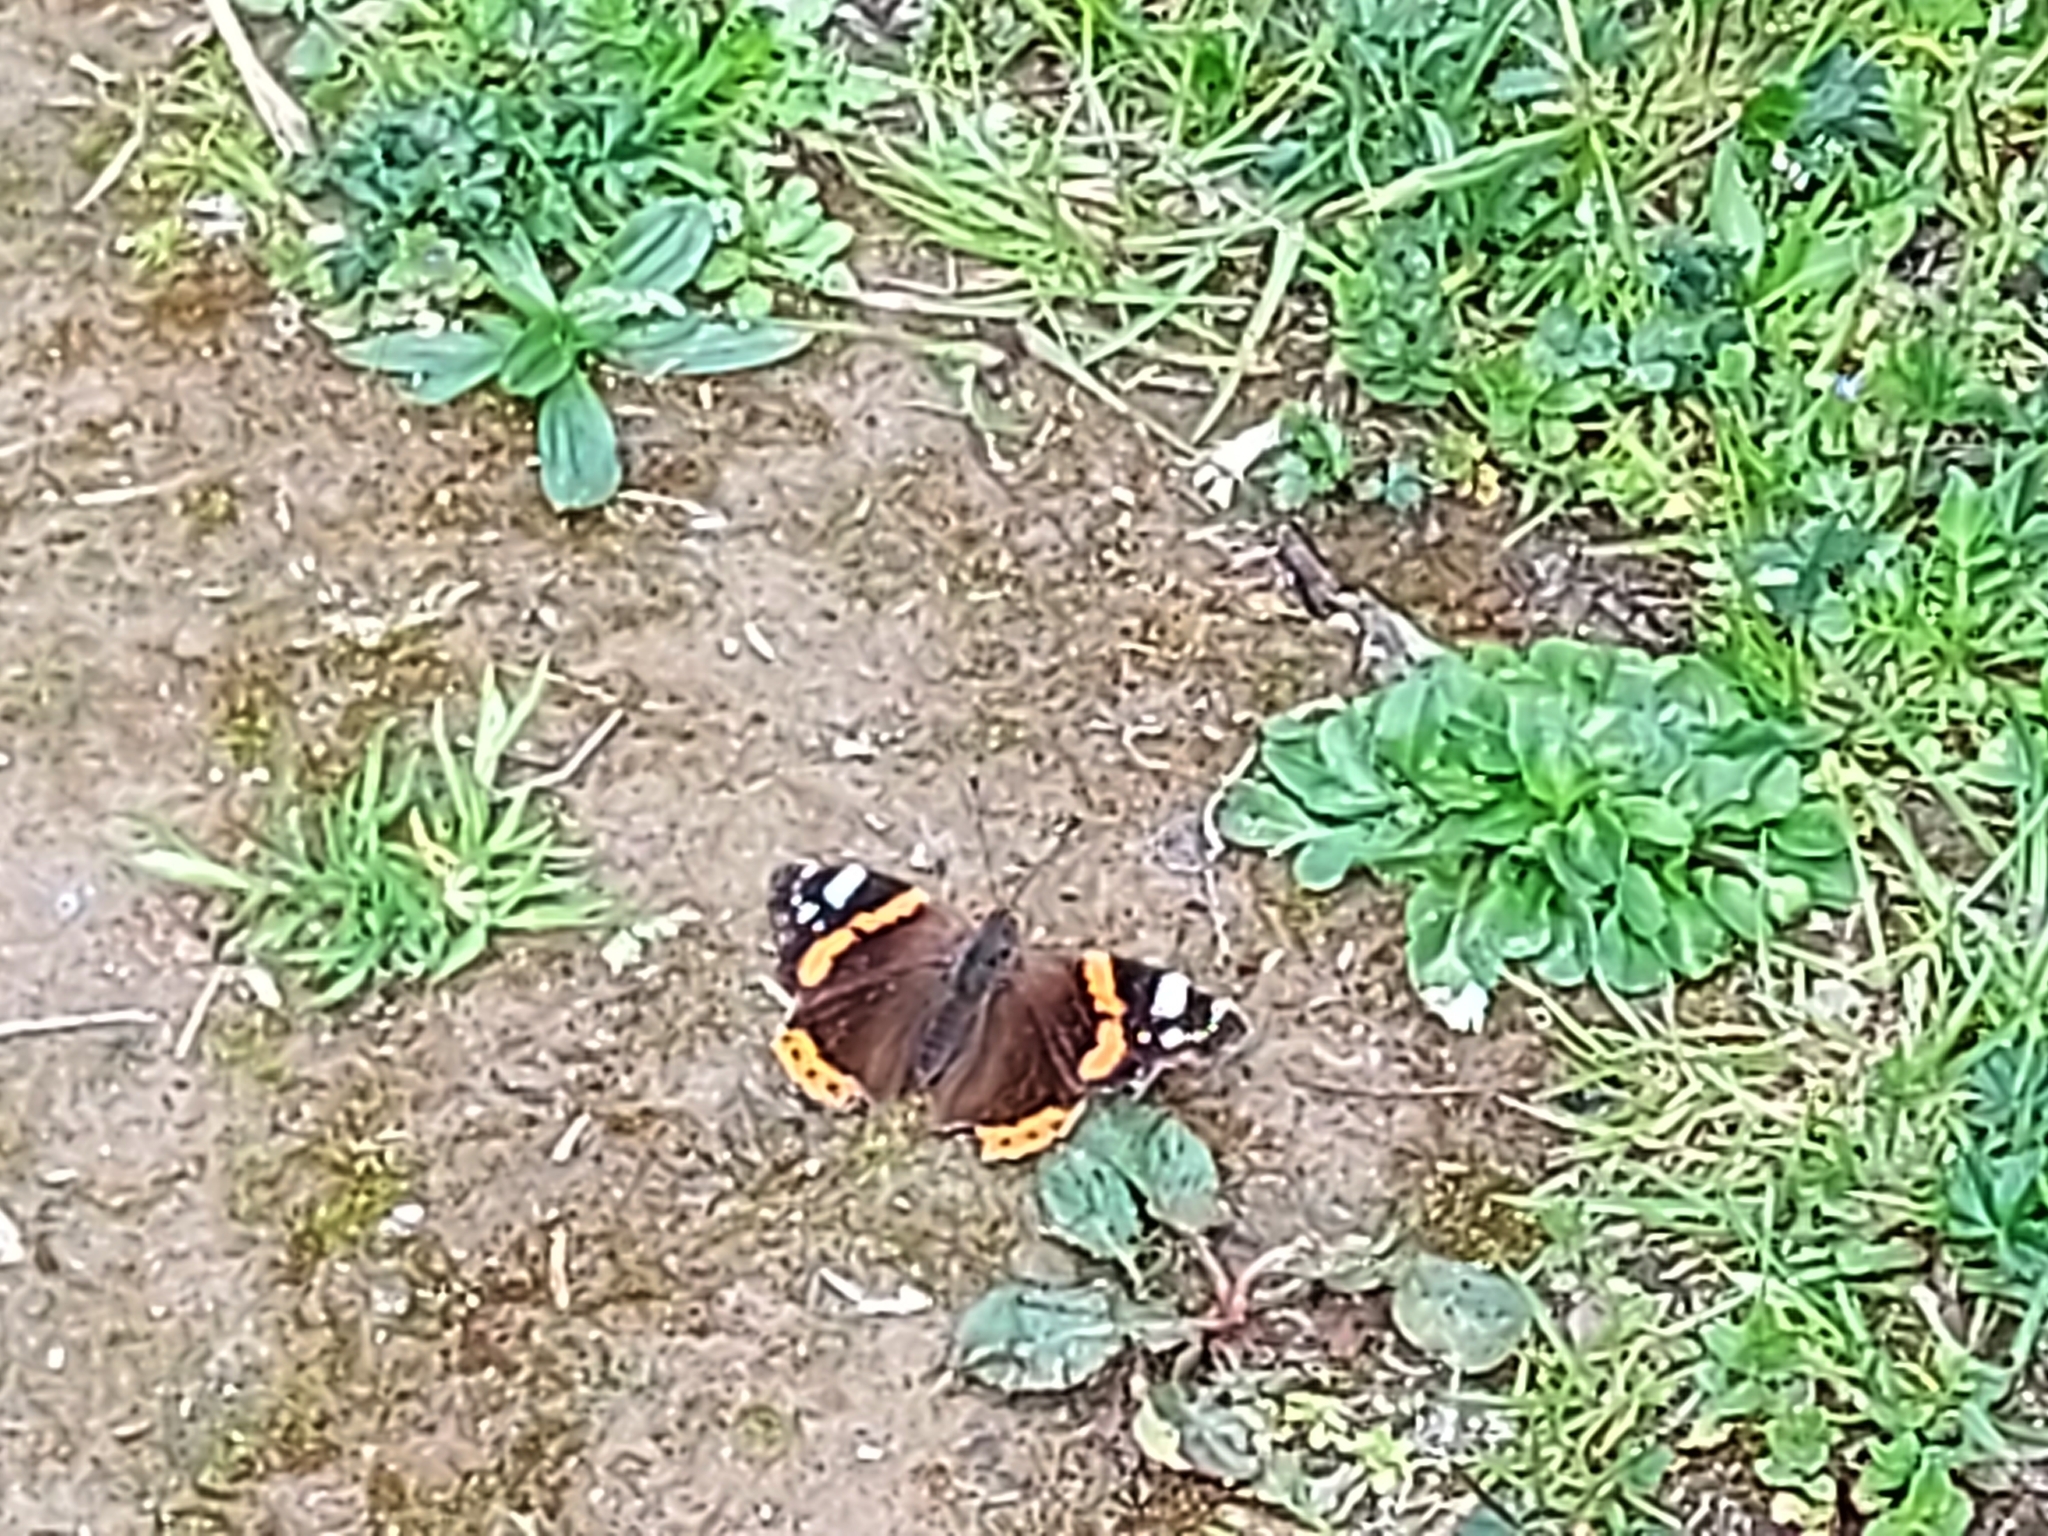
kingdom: Animalia
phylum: Arthropoda
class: Insecta
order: Lepidoptera
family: Nymphalidae
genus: Vanessa
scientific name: Vanessa atalanta
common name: Red admiral
